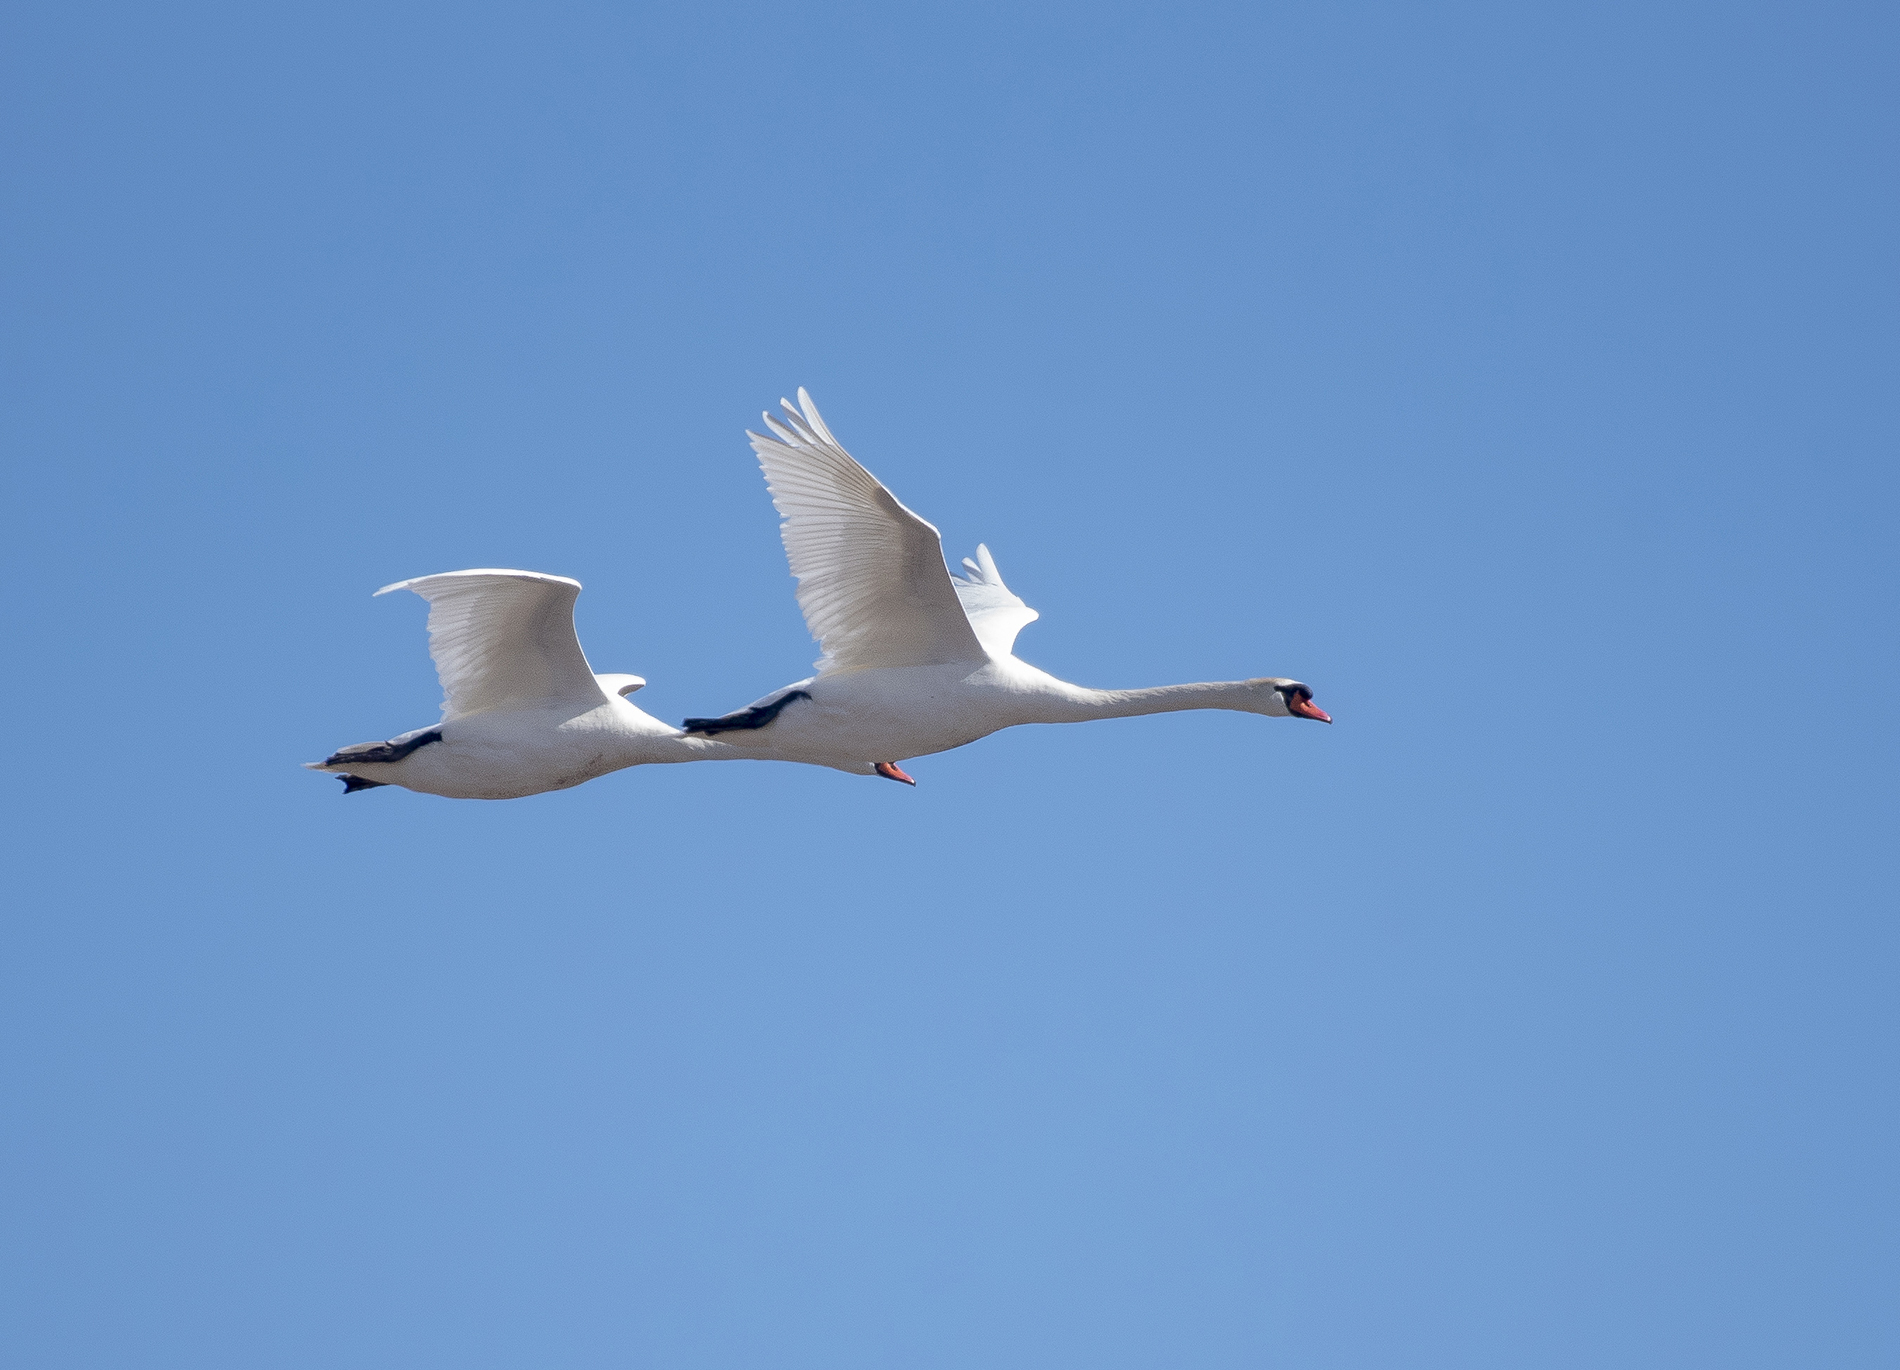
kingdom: Animalia
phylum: Chordata
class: Aves
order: Anseriformes
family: Anatidae
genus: Cygnus
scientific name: Cygnus olor
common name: Mute swan
